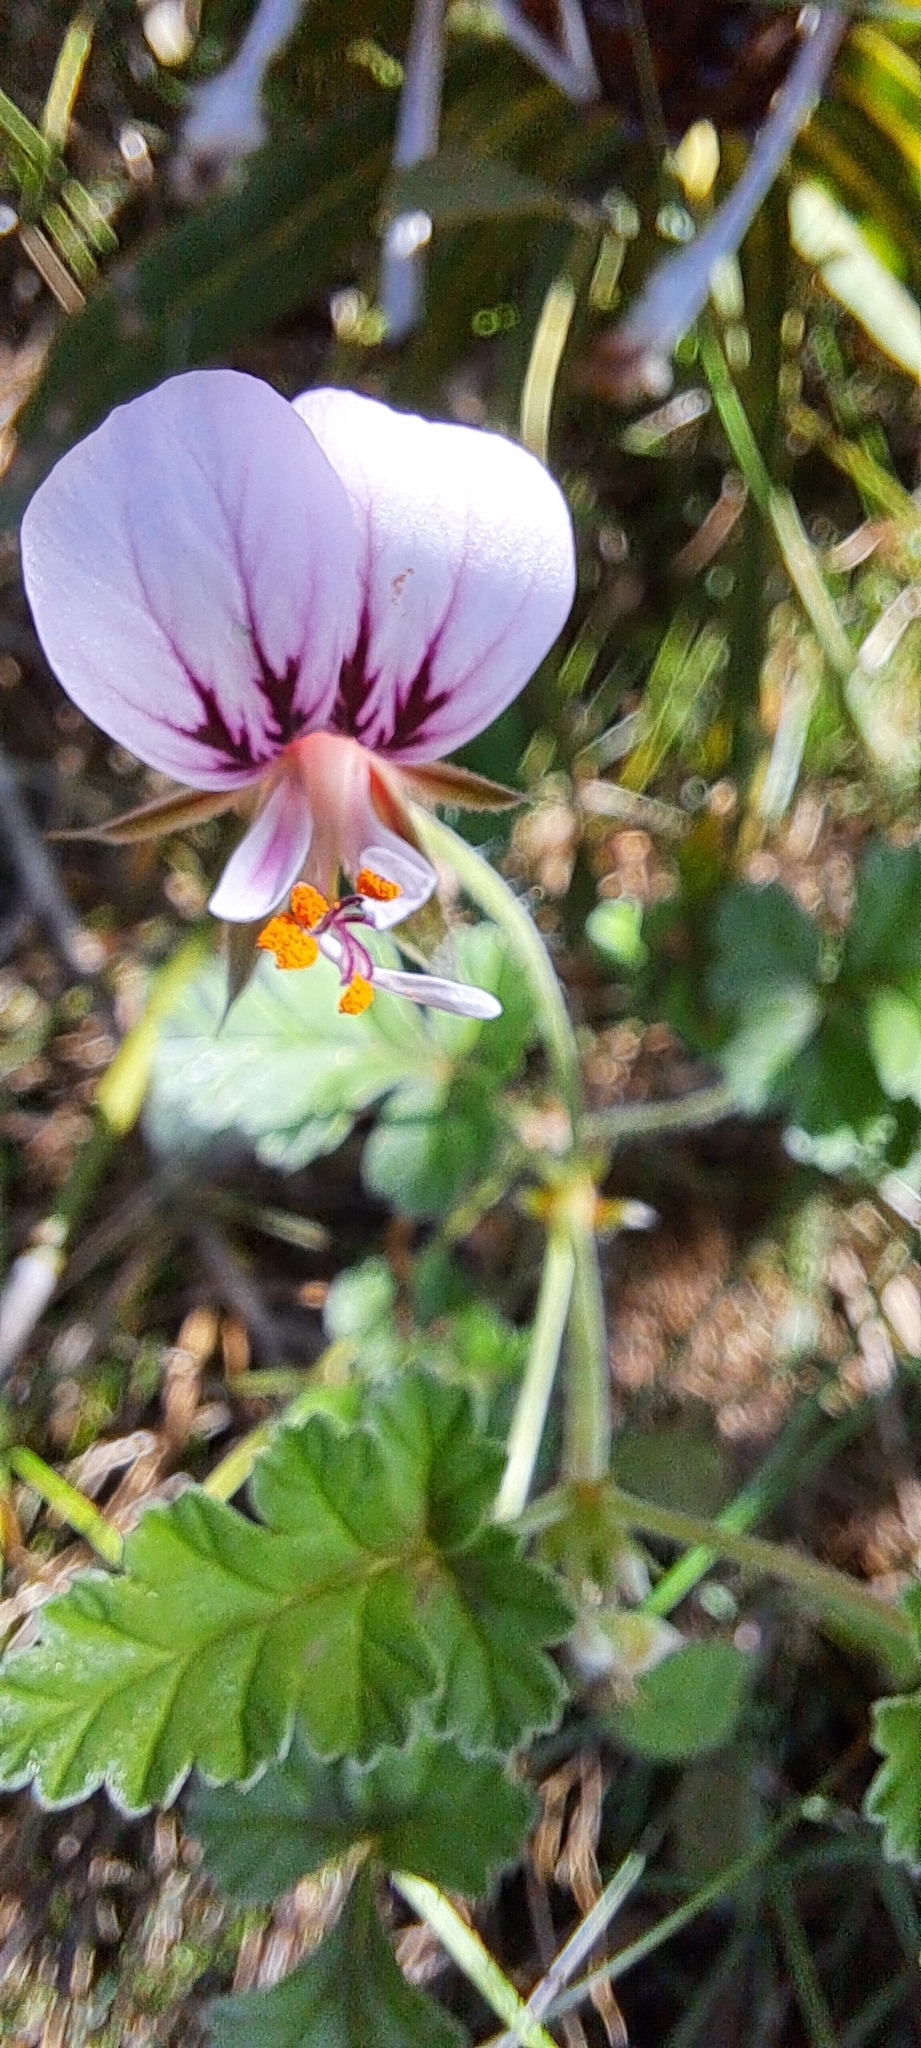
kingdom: Plantae
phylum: Tracheophyta
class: Magnoliopsida
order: Geraniales
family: Geraniaceae
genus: Pelargonium
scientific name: Pelargonium candicans
